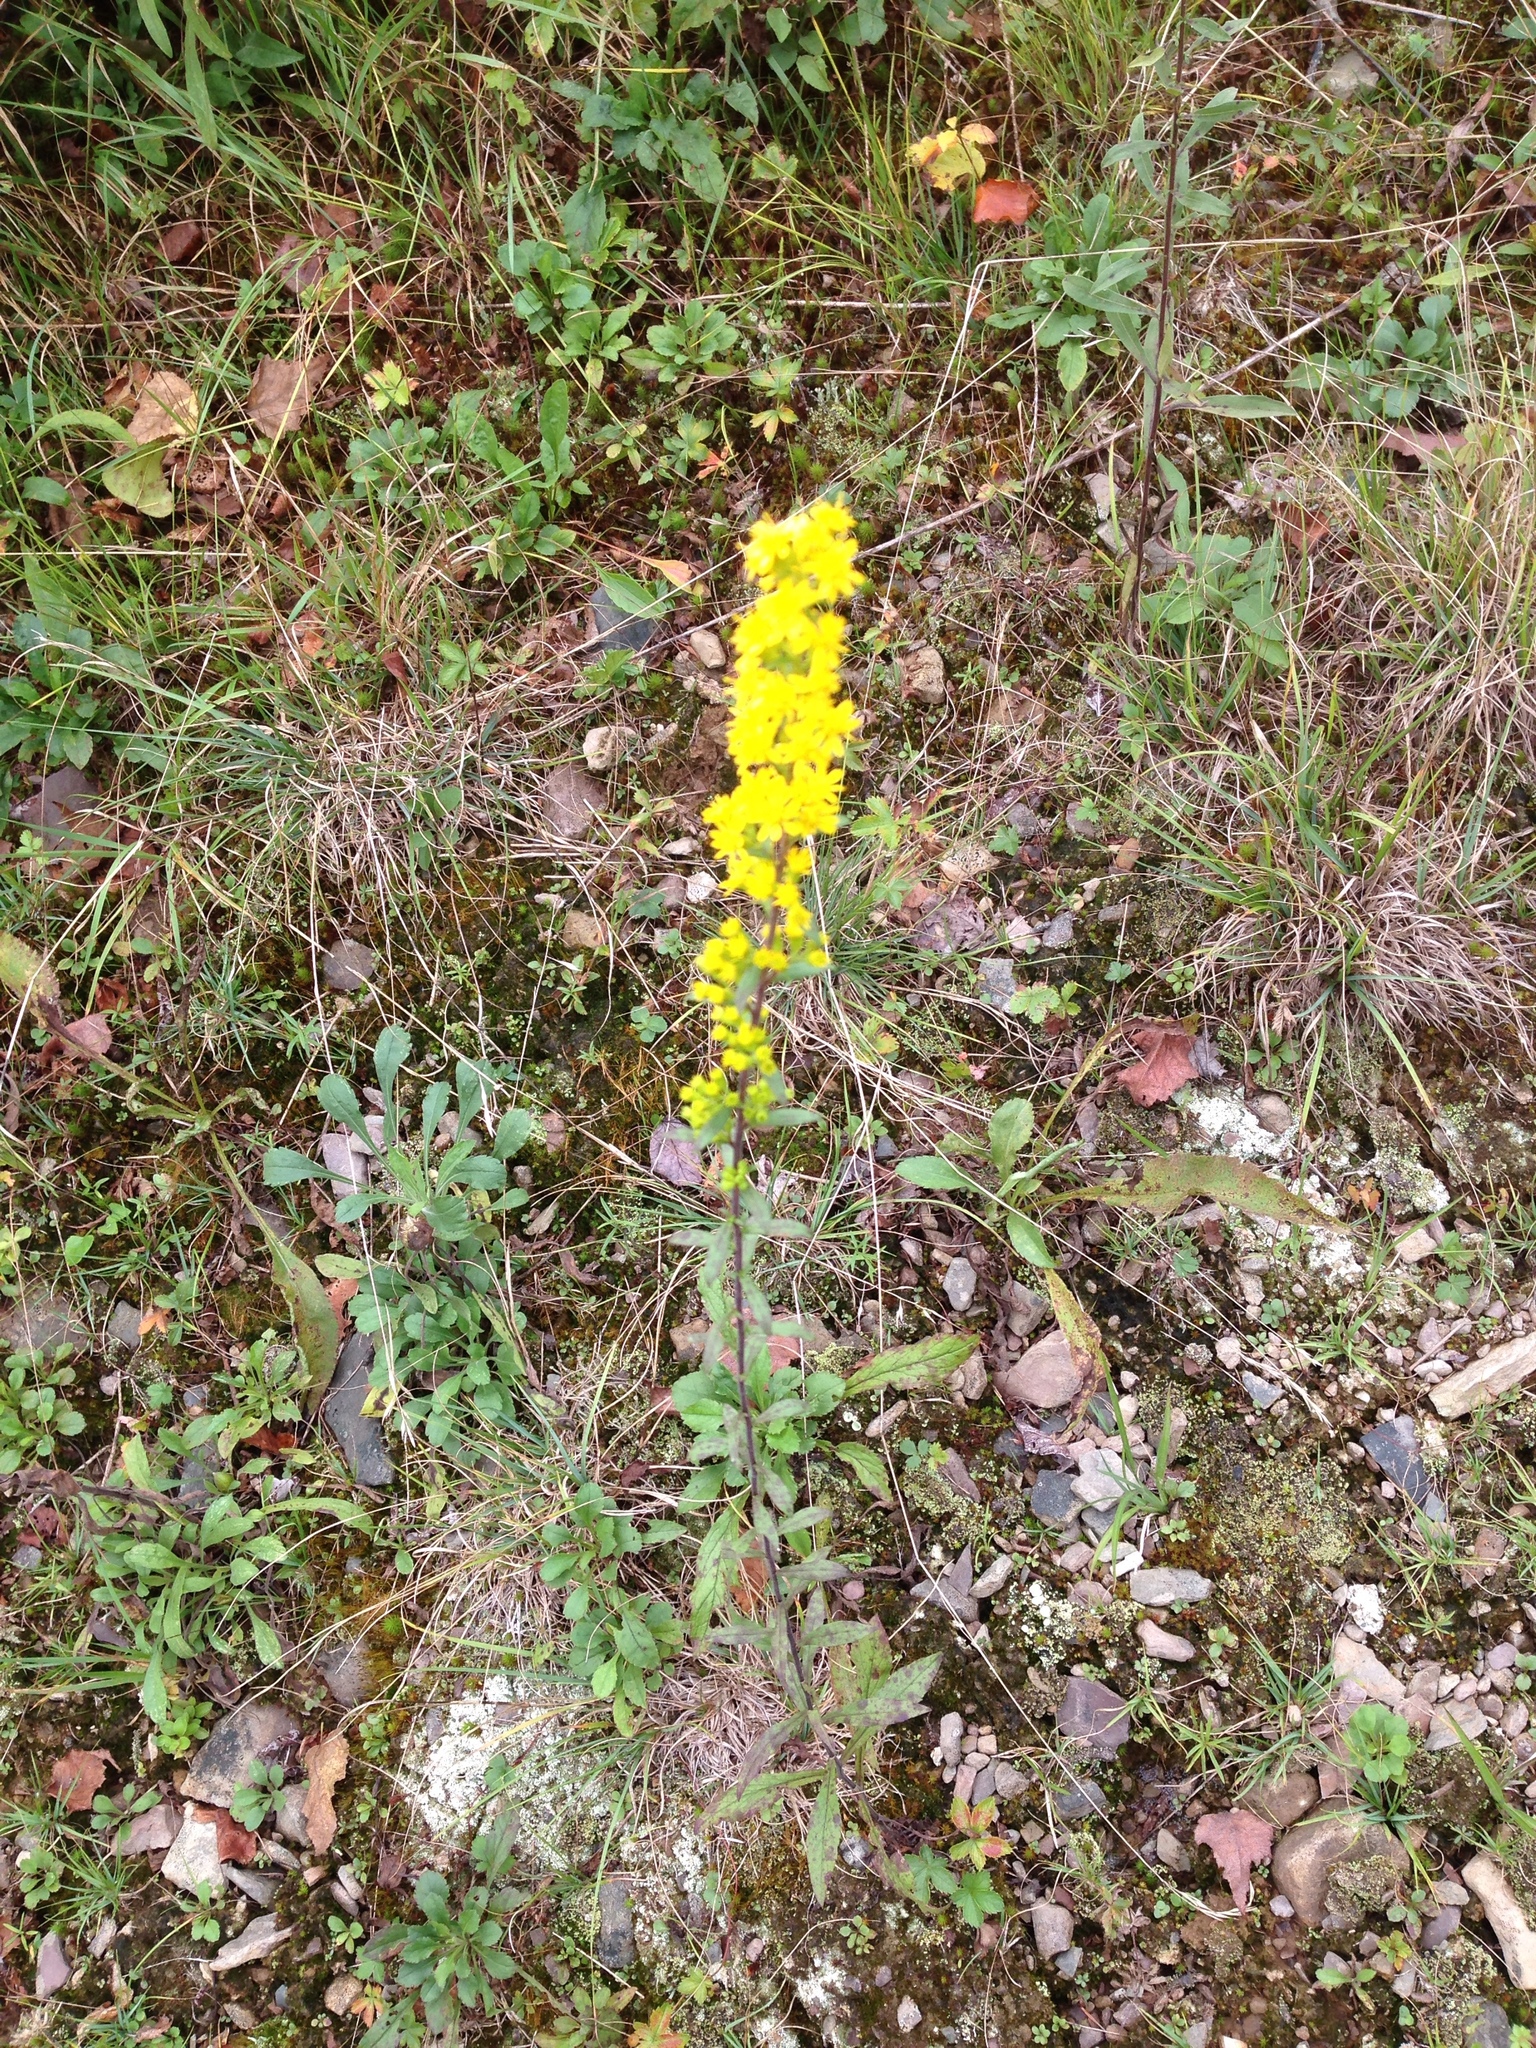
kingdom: Plantae
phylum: Tracheophyta
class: Magnoliopsida
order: Asterales
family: Asteraceae
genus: Solidago
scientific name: Solidago puberula
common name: Downy goldenrod
